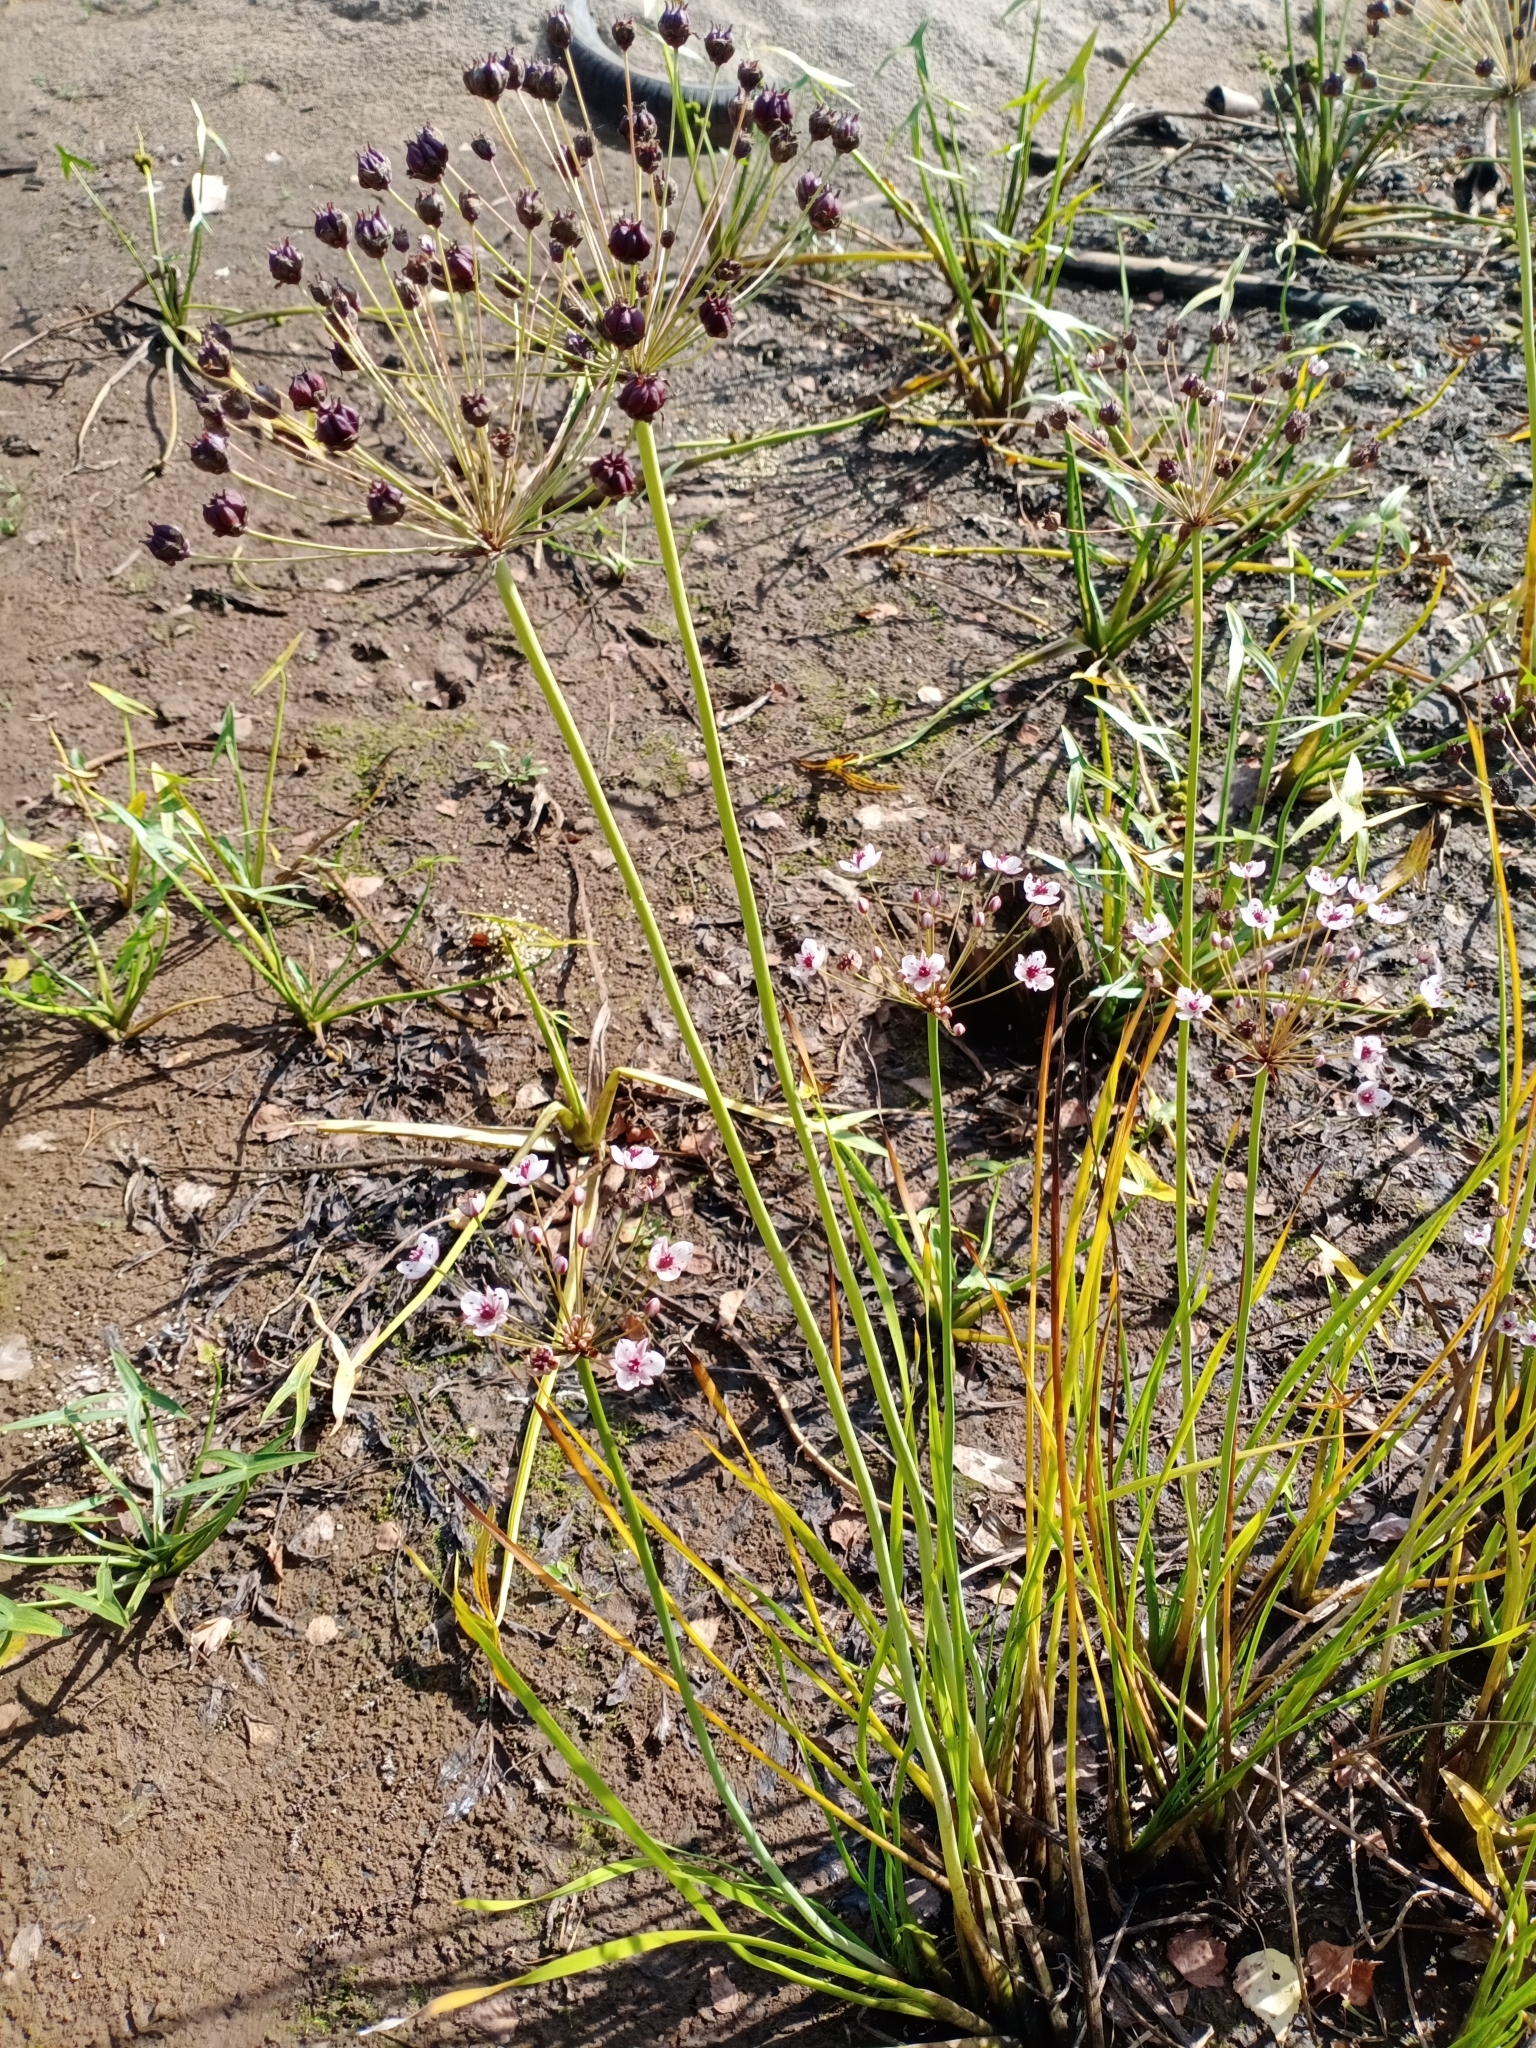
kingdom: Plantae
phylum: Tracheophyta
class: Liliopsida
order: Alismatales
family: Butomaceae
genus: Butomus
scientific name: Butomus umbellatus
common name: Flowering-rush
